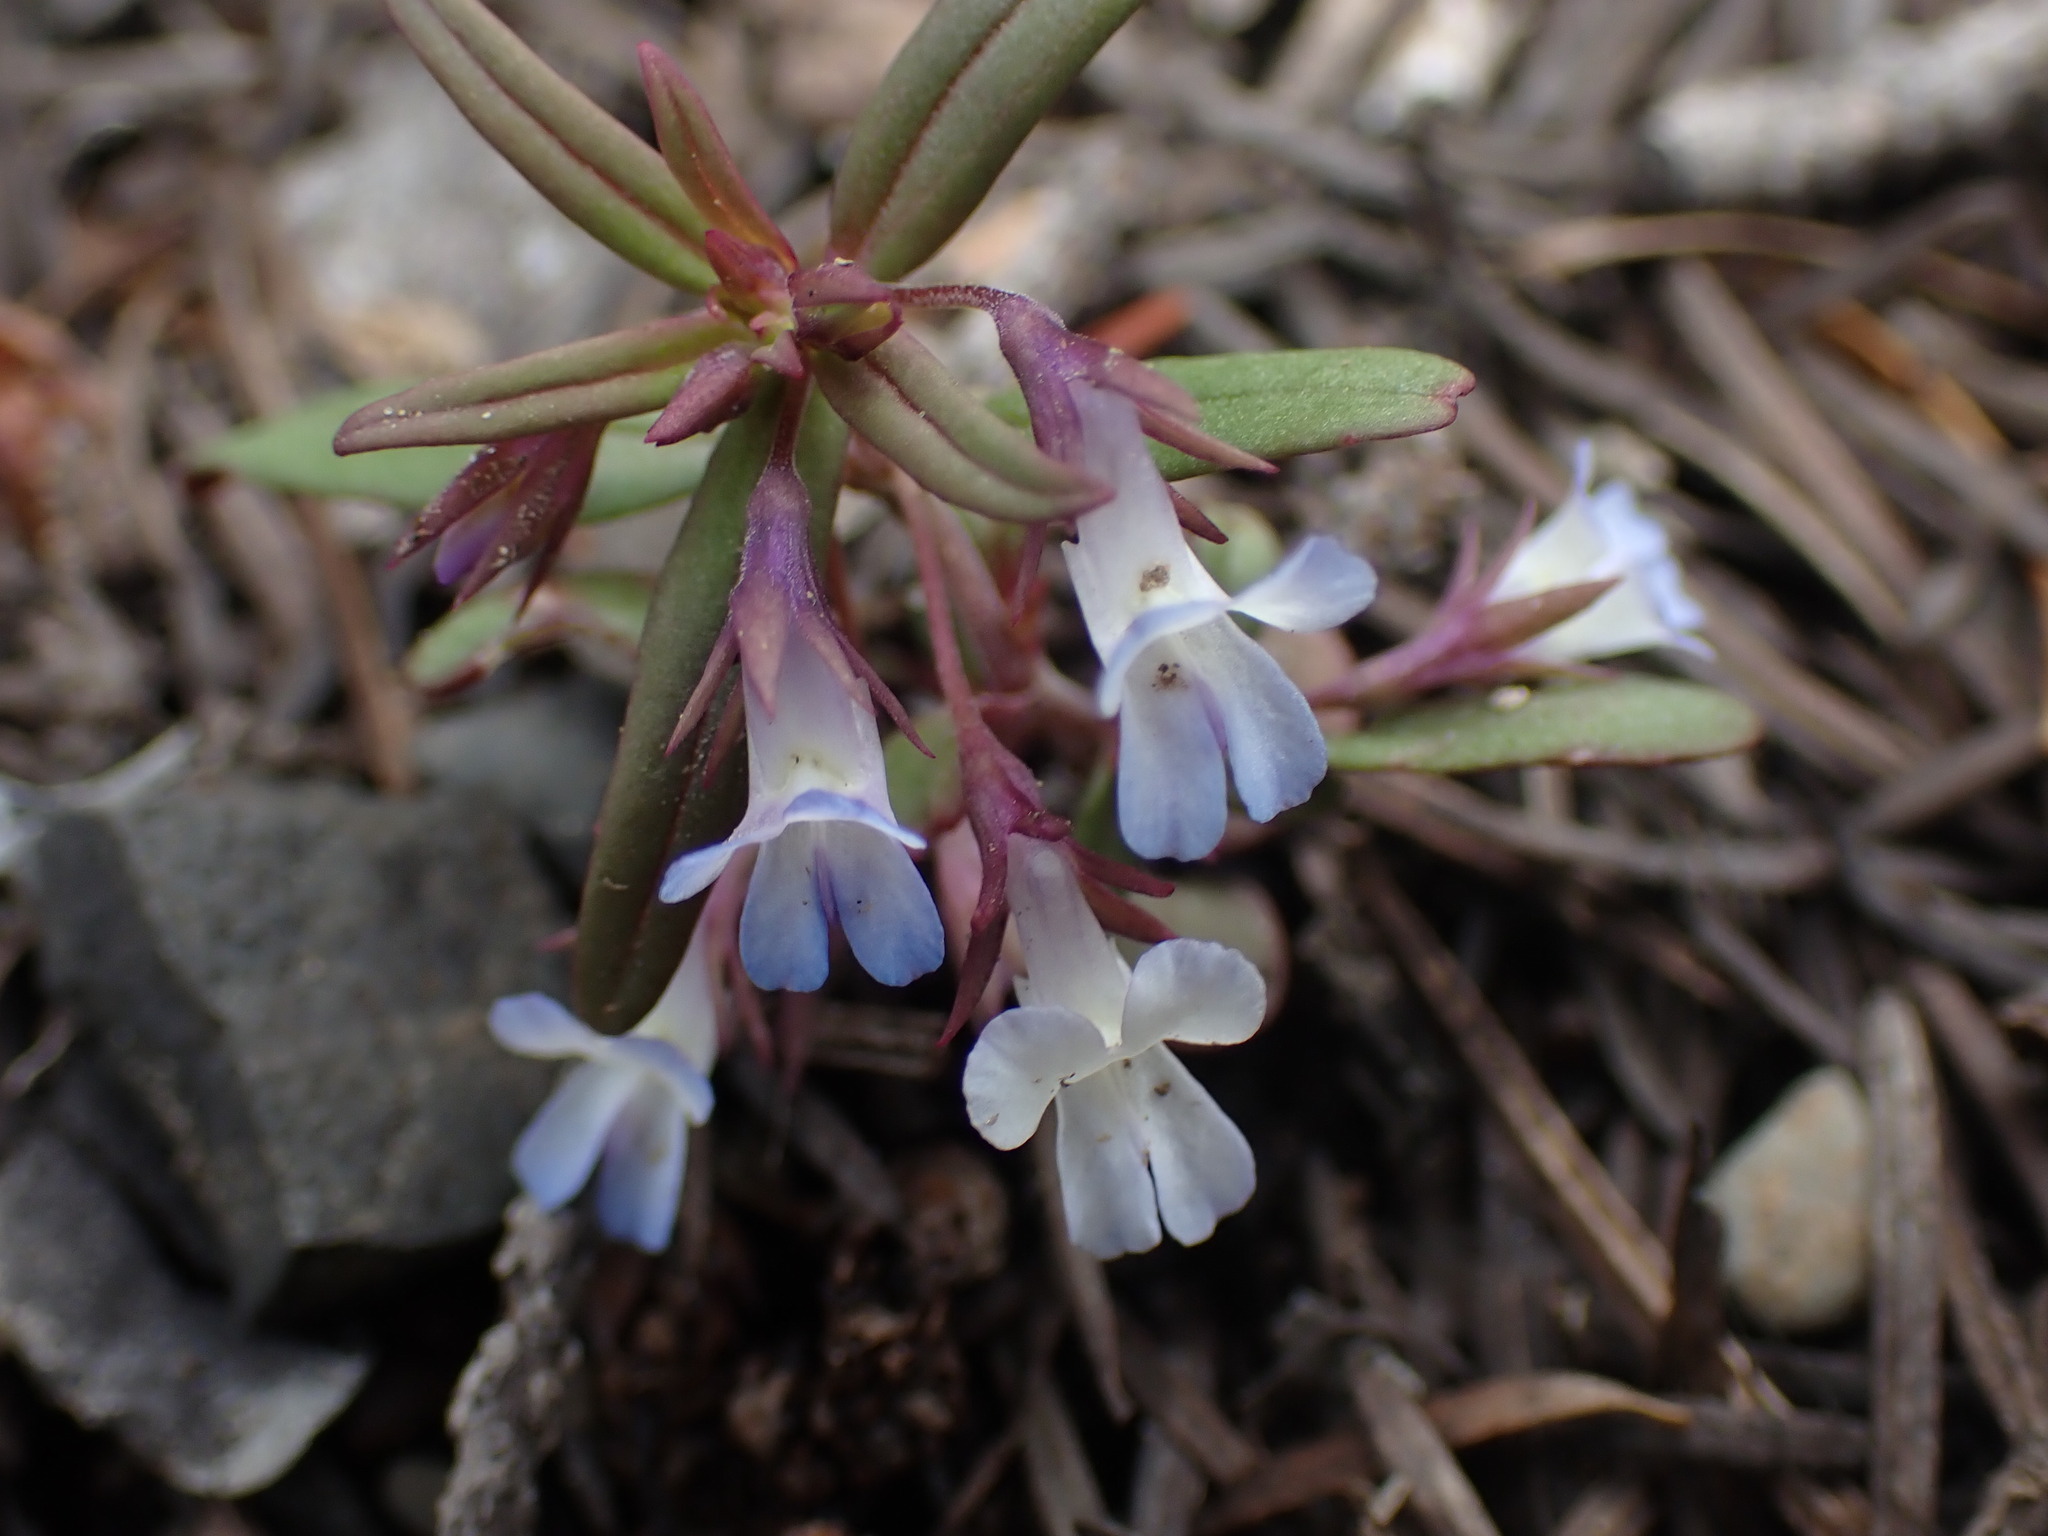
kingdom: Plantae
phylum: Tracheophyta
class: Magnoliopsida
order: Lamiales
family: Plantaginaceae
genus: Collinsia
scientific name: Collinsia parviflora
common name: Blue-lips
